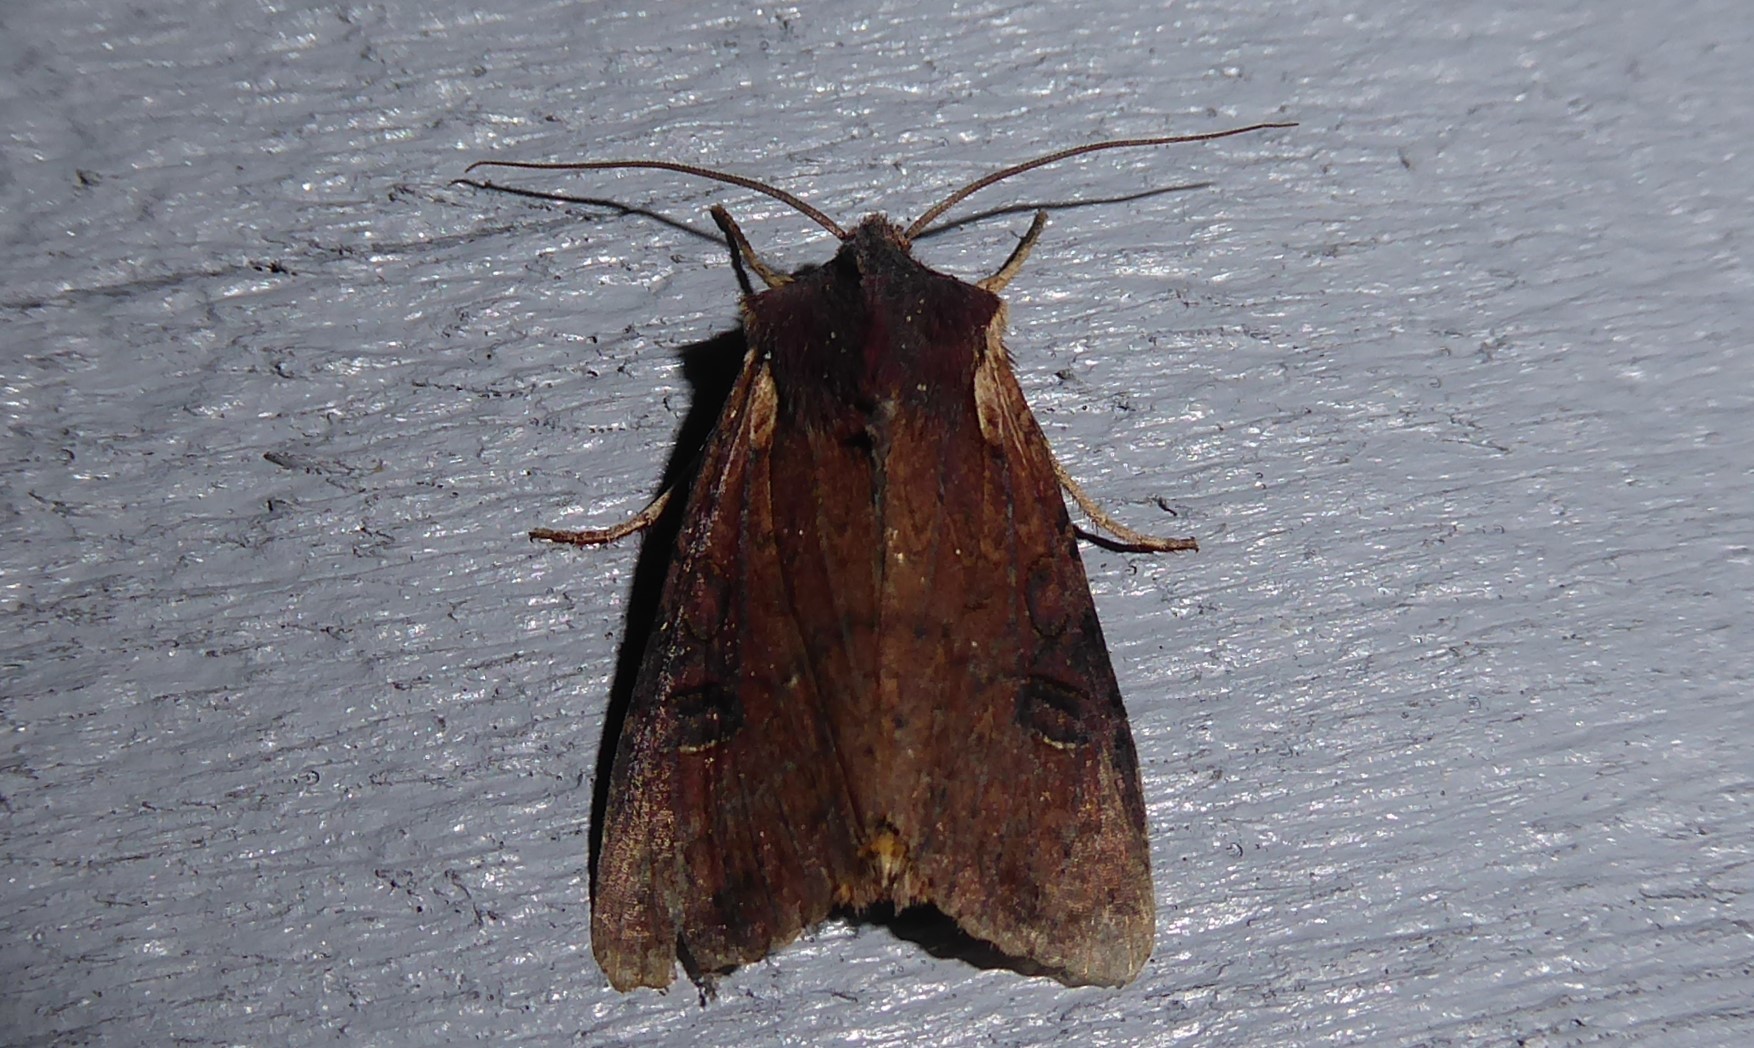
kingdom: Animalia
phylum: Arthropoda
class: Insecta
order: Lepidoptera
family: Noctuidae
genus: Ichneutica
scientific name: Ichneutica omoplaca
